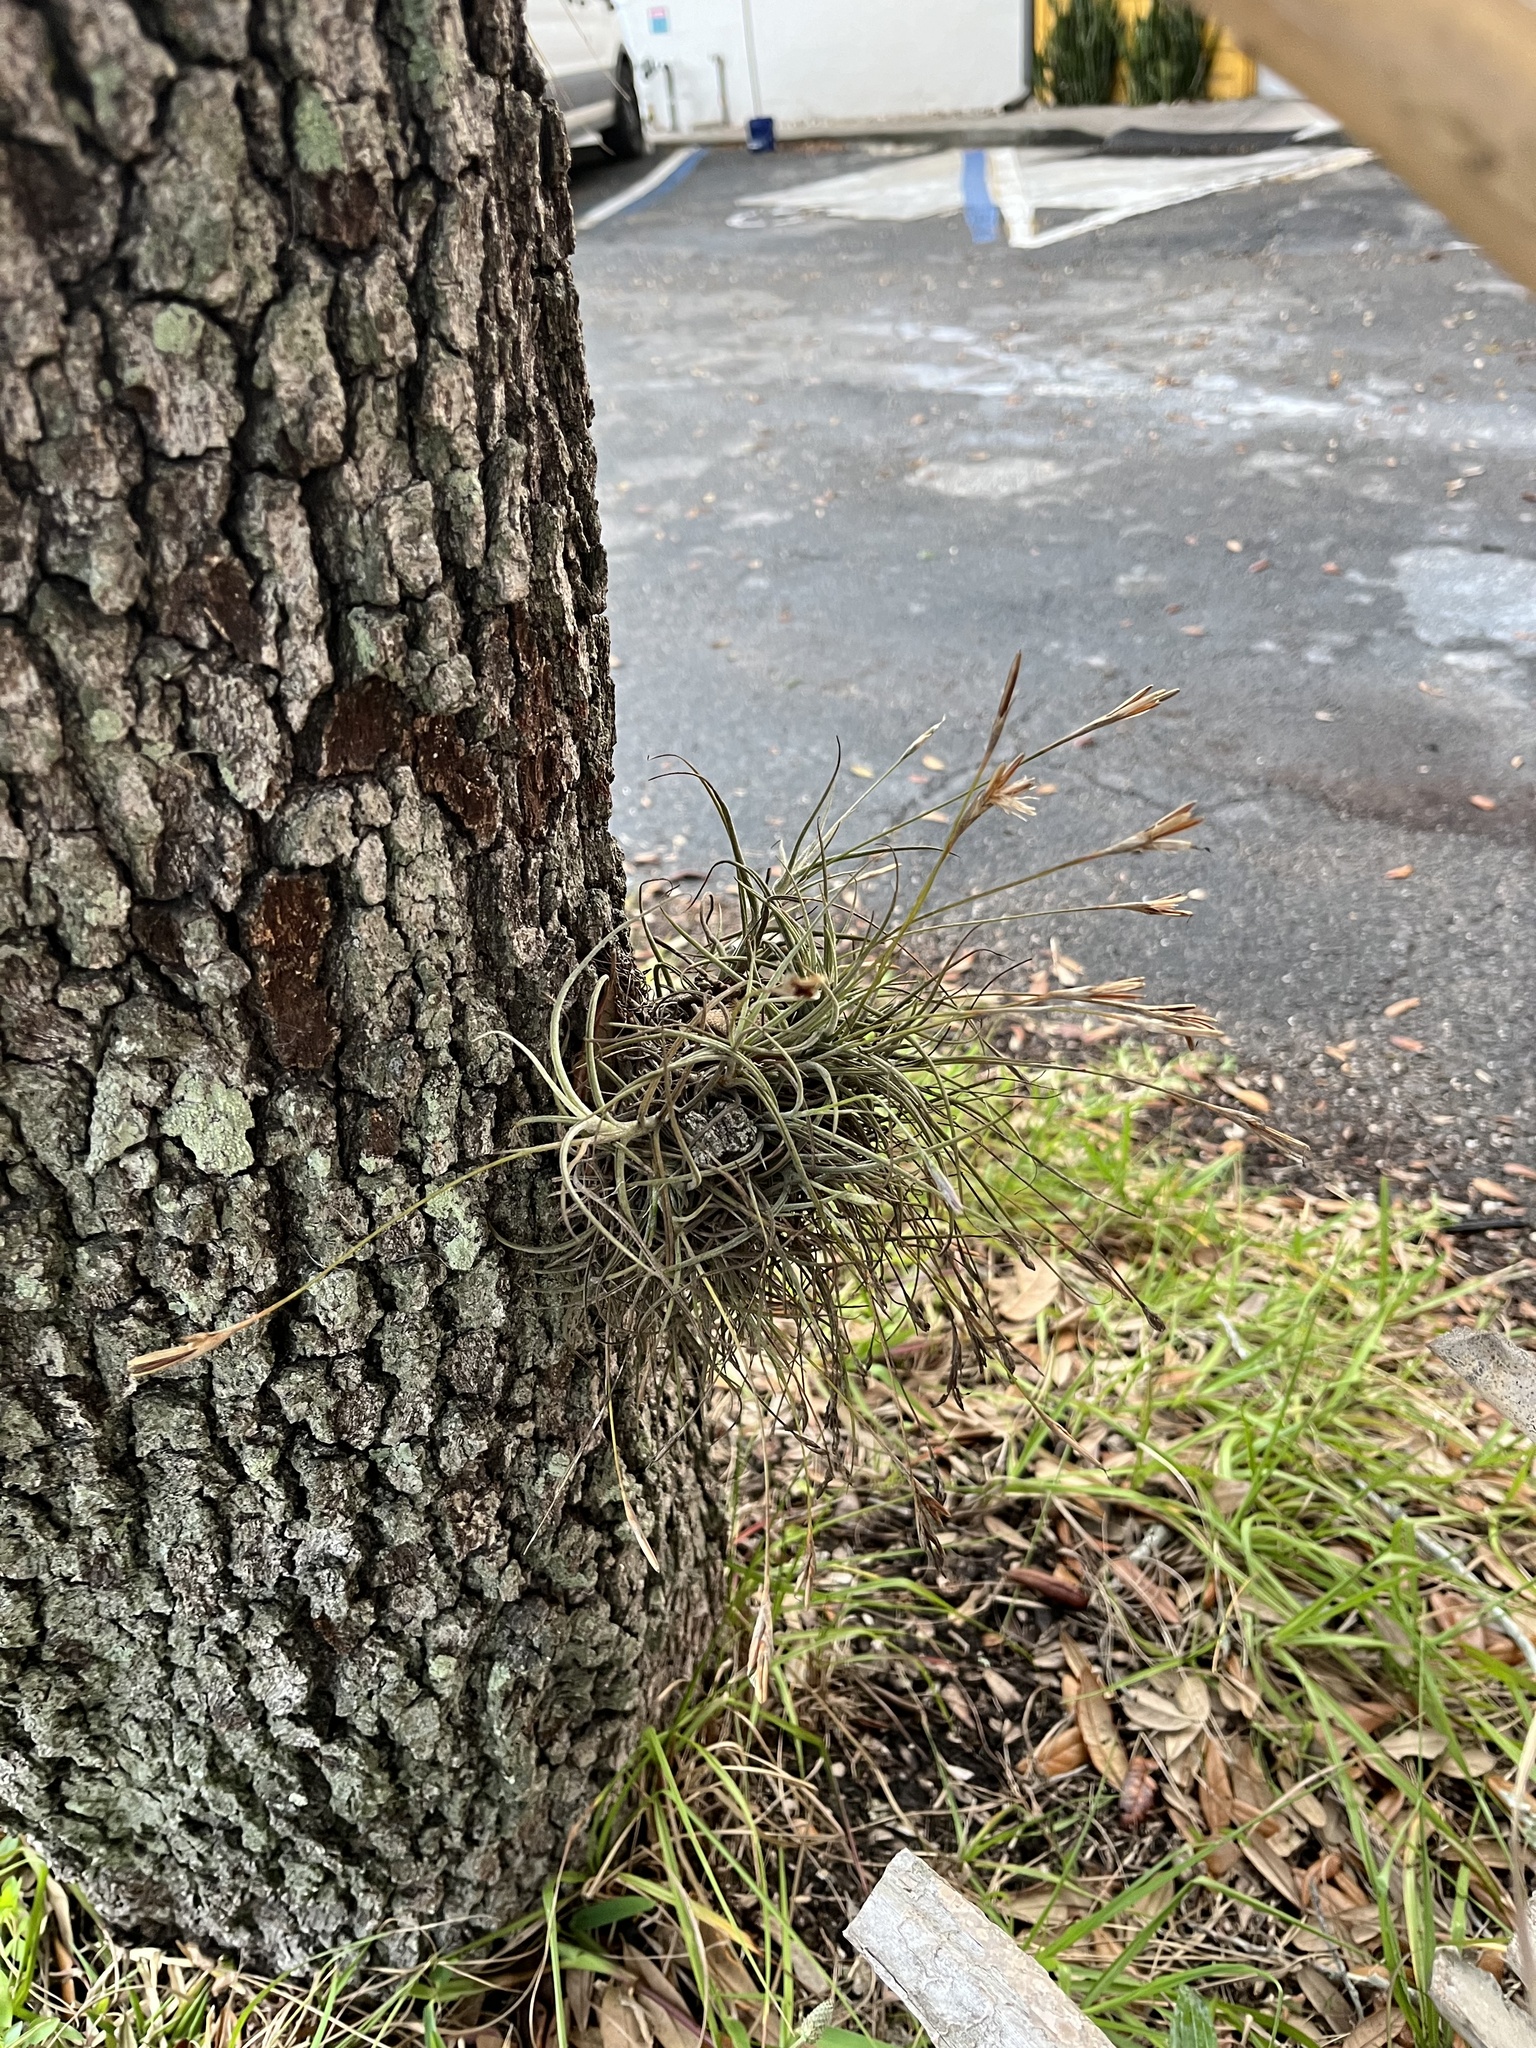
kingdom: Plantae
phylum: Tracheophyta
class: Liliopsida
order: Poales
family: Bromeliaceae
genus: Tillandsia
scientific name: Tillandsia recurvata
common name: Small ballmoss
